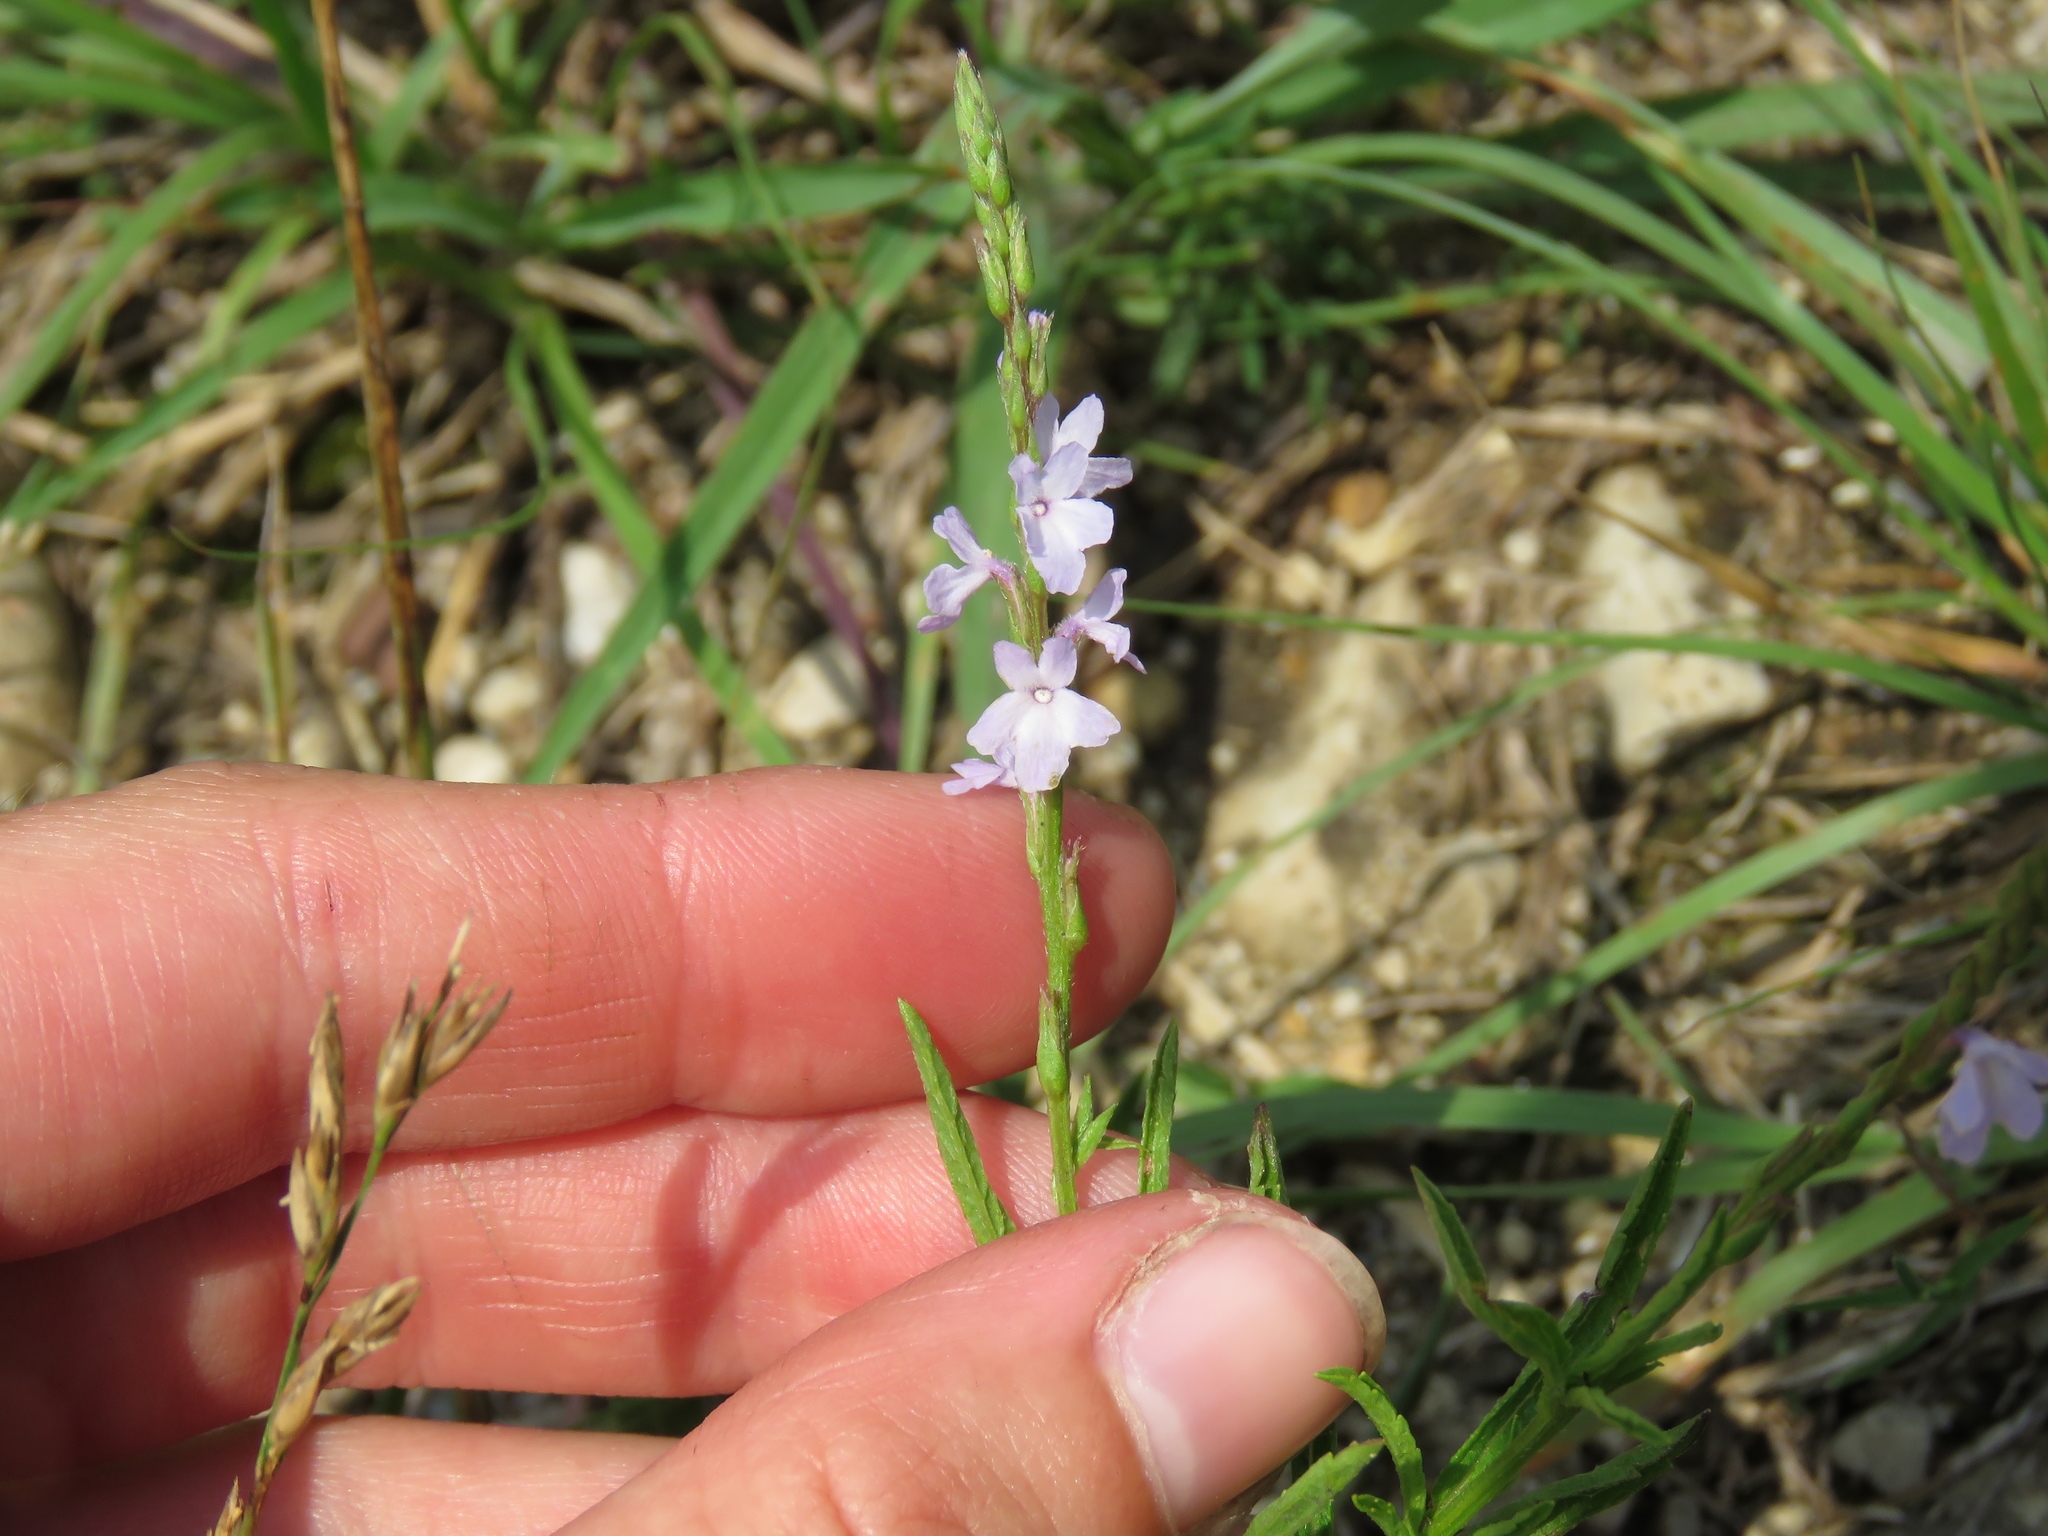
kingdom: Plantae
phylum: Tracheophyta
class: Magnoliopsida
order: Lamiales
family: Verbenaceae
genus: Verbena
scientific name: Verbena simplex
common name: Narrow-leaf vervain
